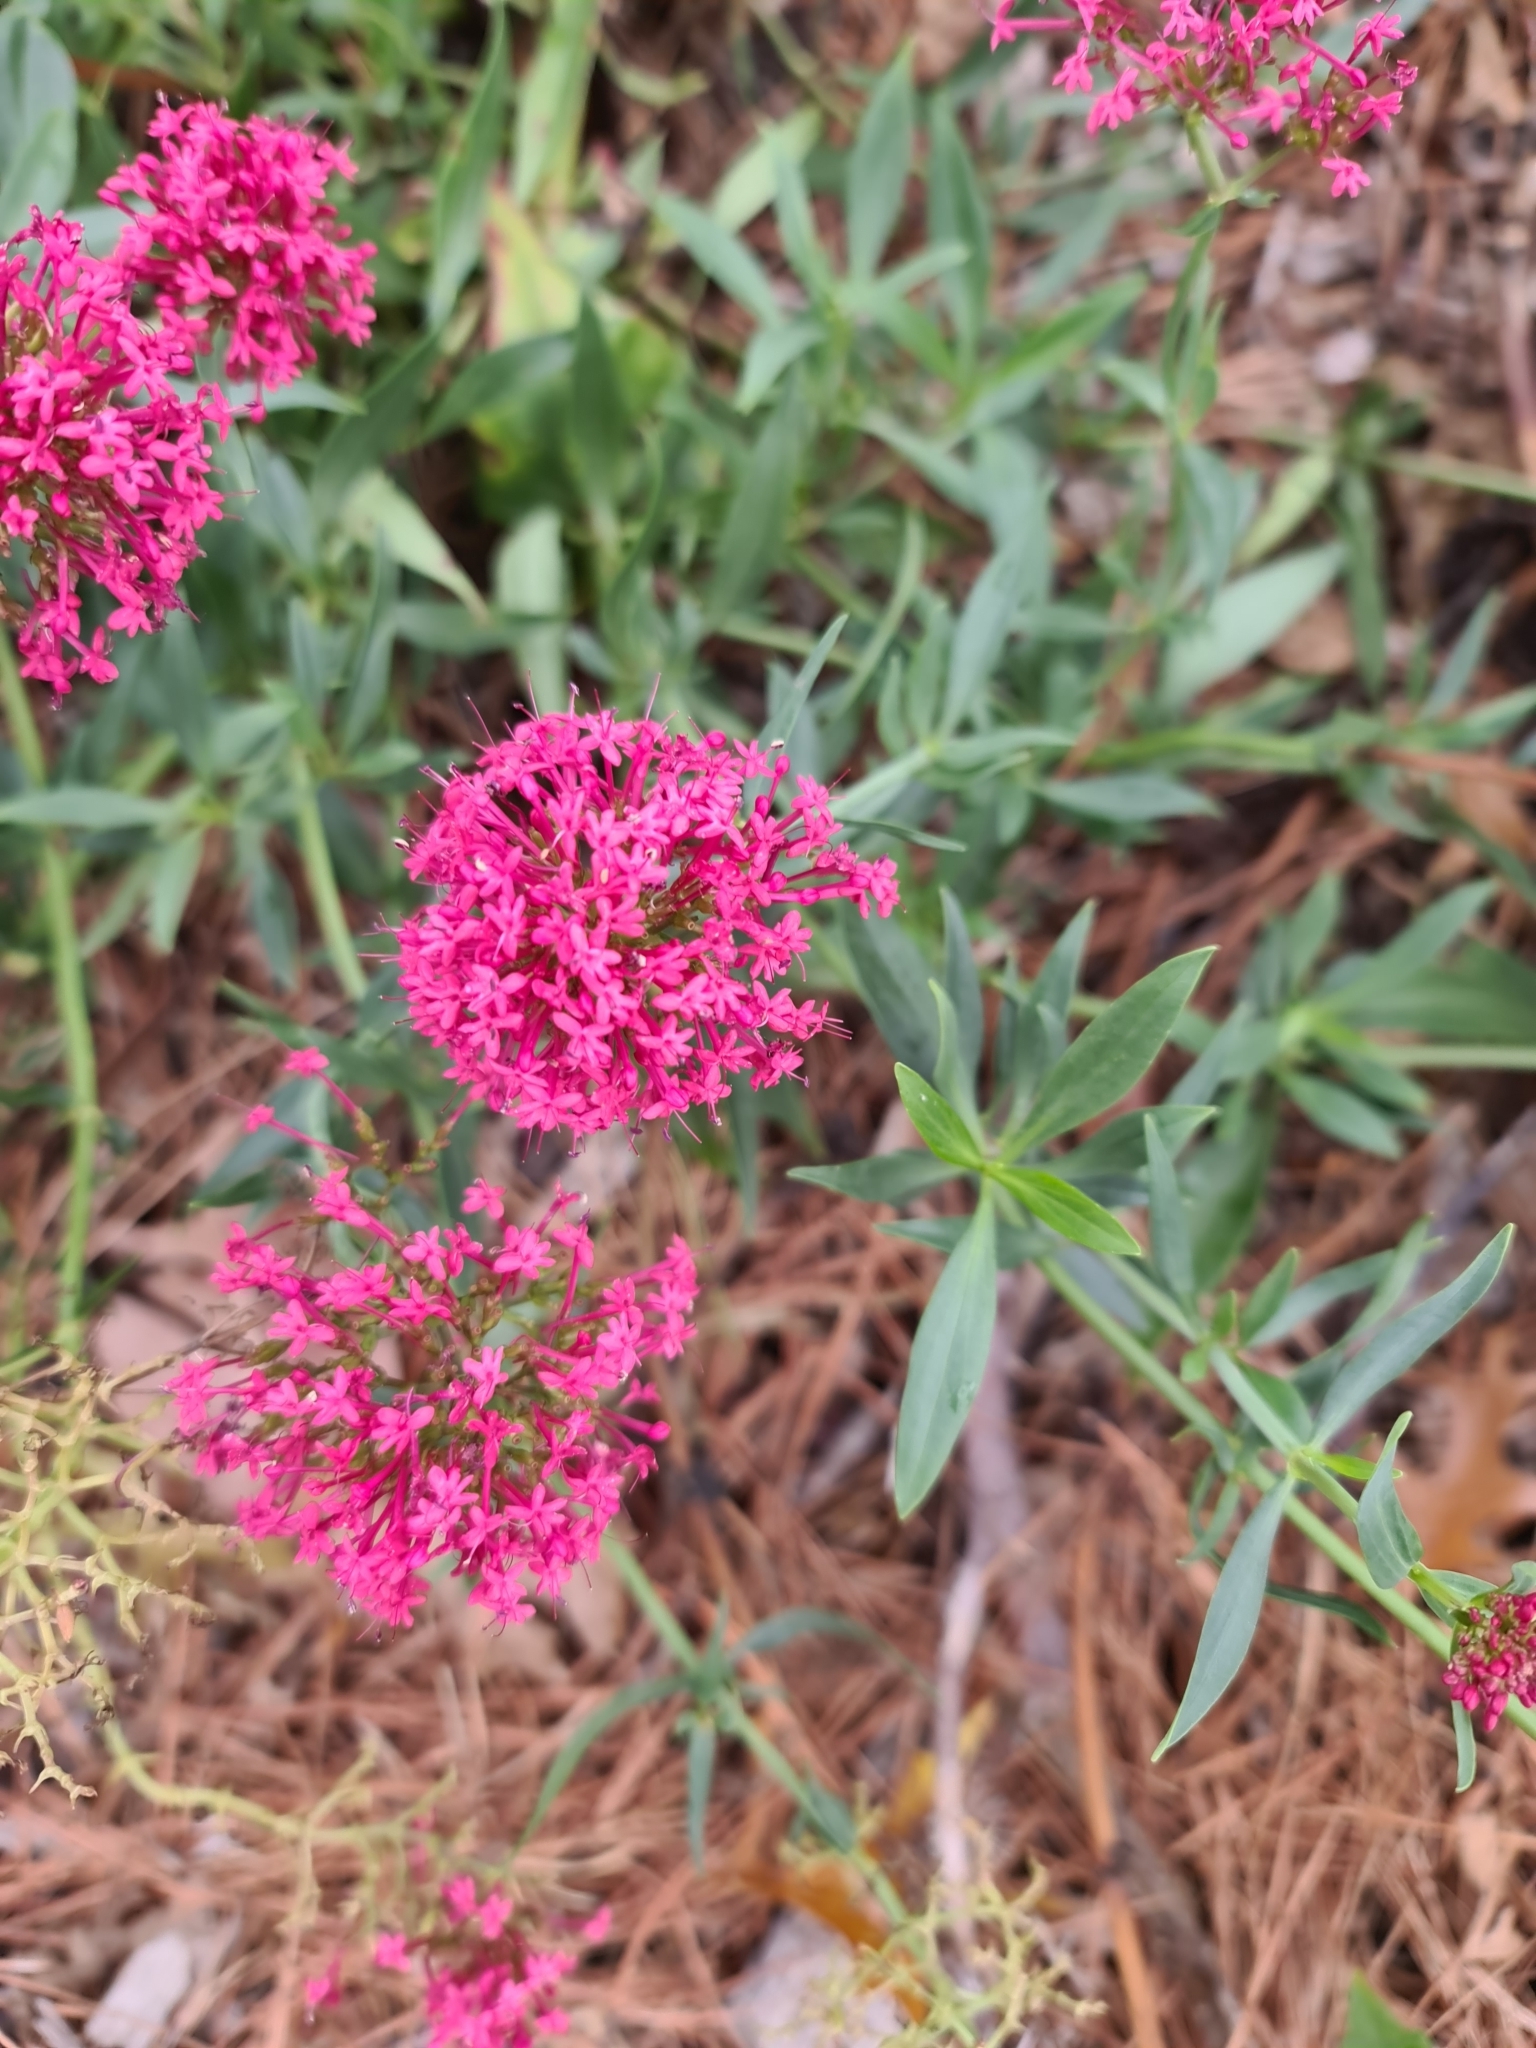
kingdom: Plantae
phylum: Tracheophyta
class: Magnoliopsida
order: Dipsacales
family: Caprifoliaceae
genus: Centranthus
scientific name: Centranthus ruber
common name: Red valerian
